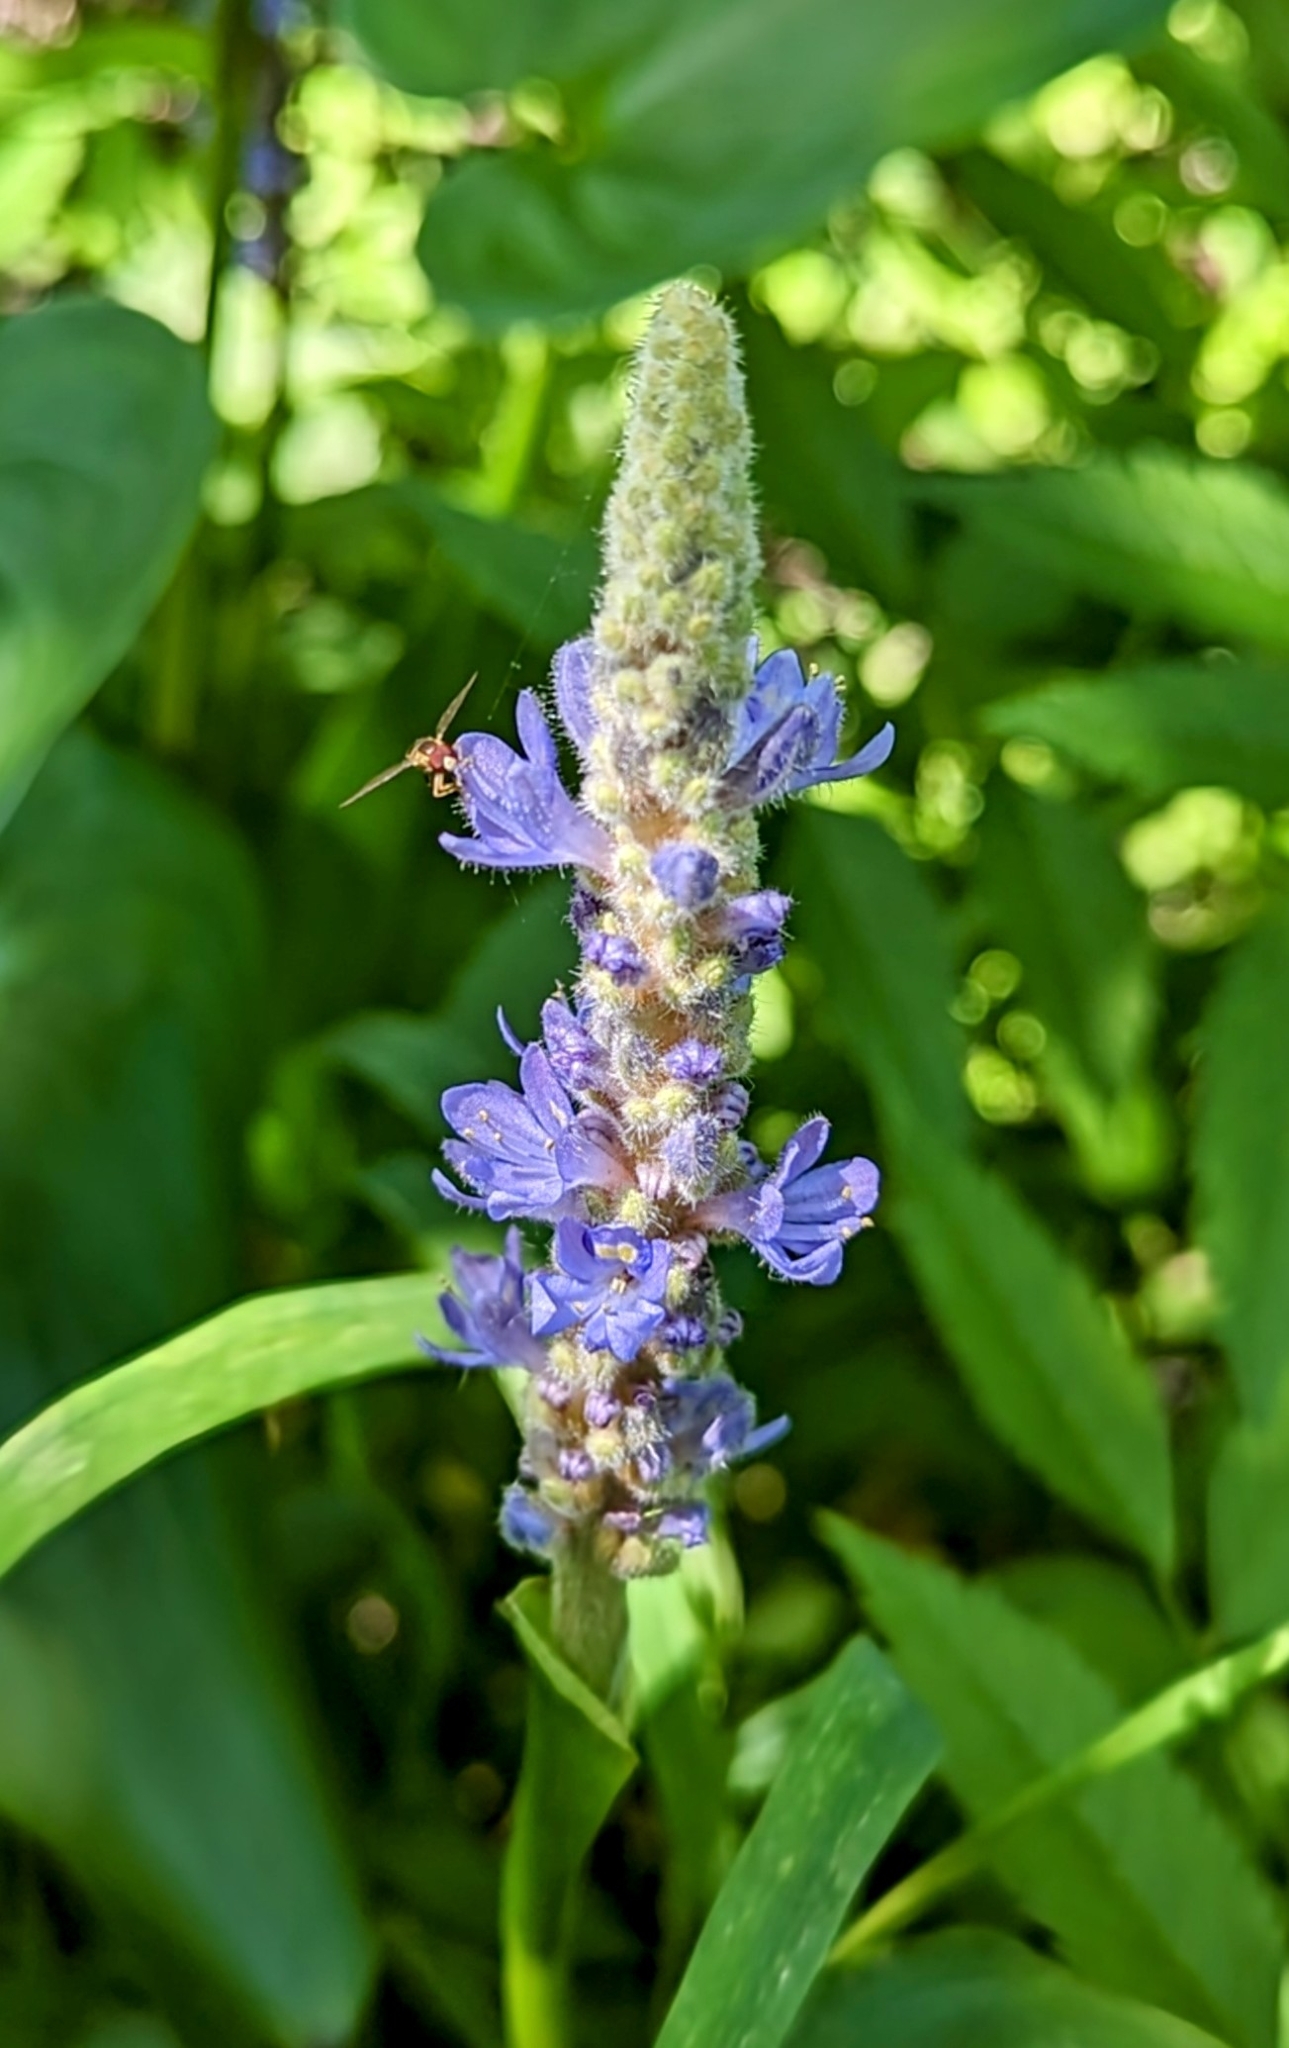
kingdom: Plantae
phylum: Tracheophyta
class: Liliopsida
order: Commelinales
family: Pontederiaceae
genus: Pontederia
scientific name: Pontederia cordata
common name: Pickerelweed
